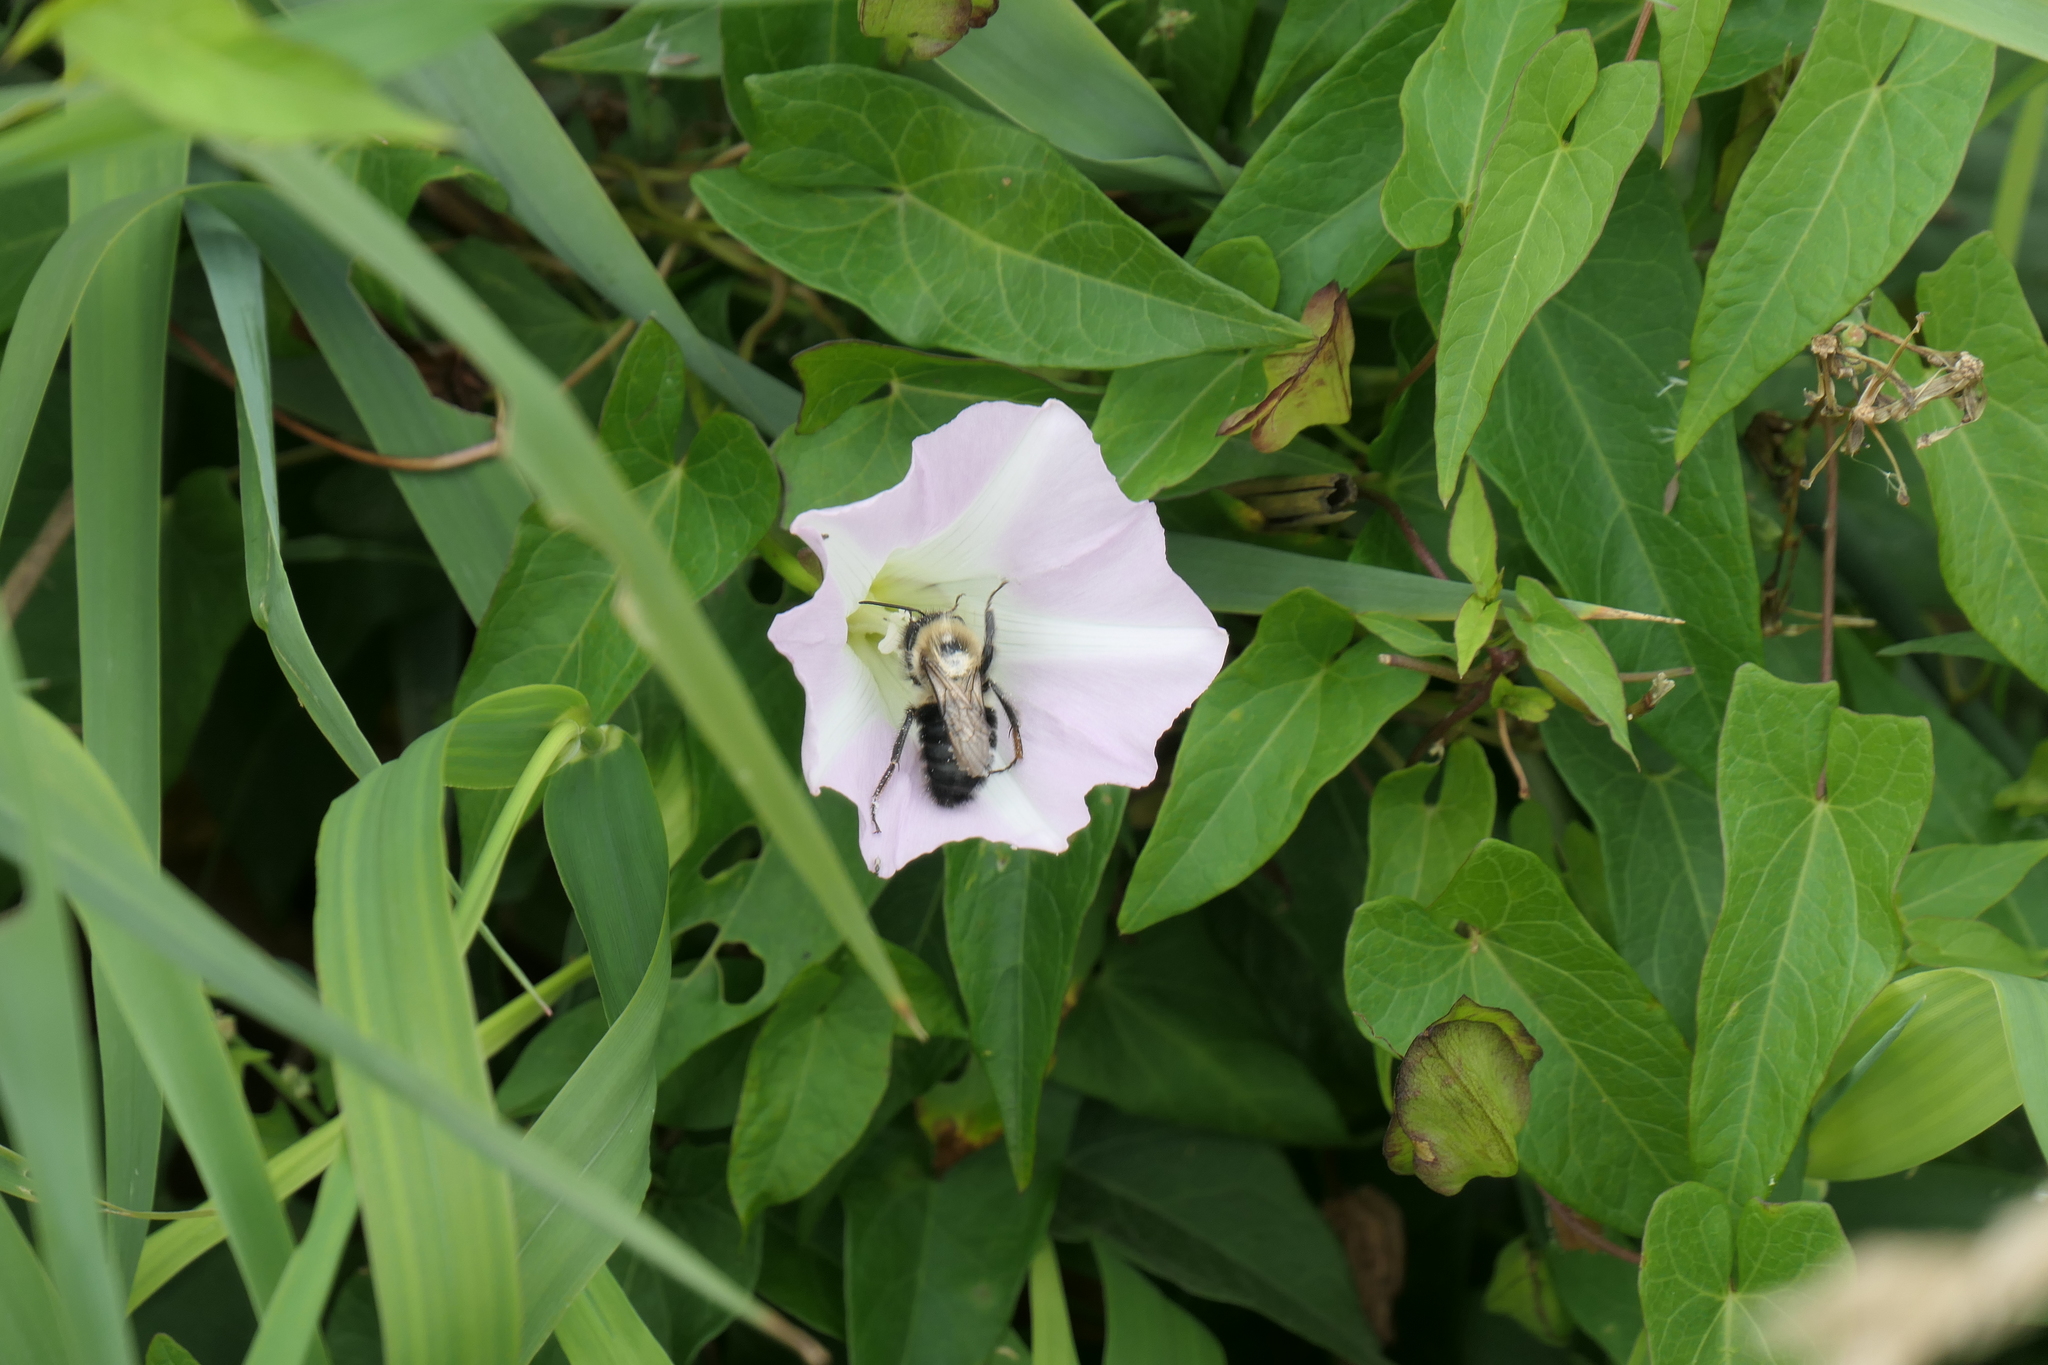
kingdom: Animalia
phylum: Arthropoda
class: Insecta
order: Hymenoptera
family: Apidae
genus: Bombus
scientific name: Bombus impatiens
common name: Common eastern bumble bee
